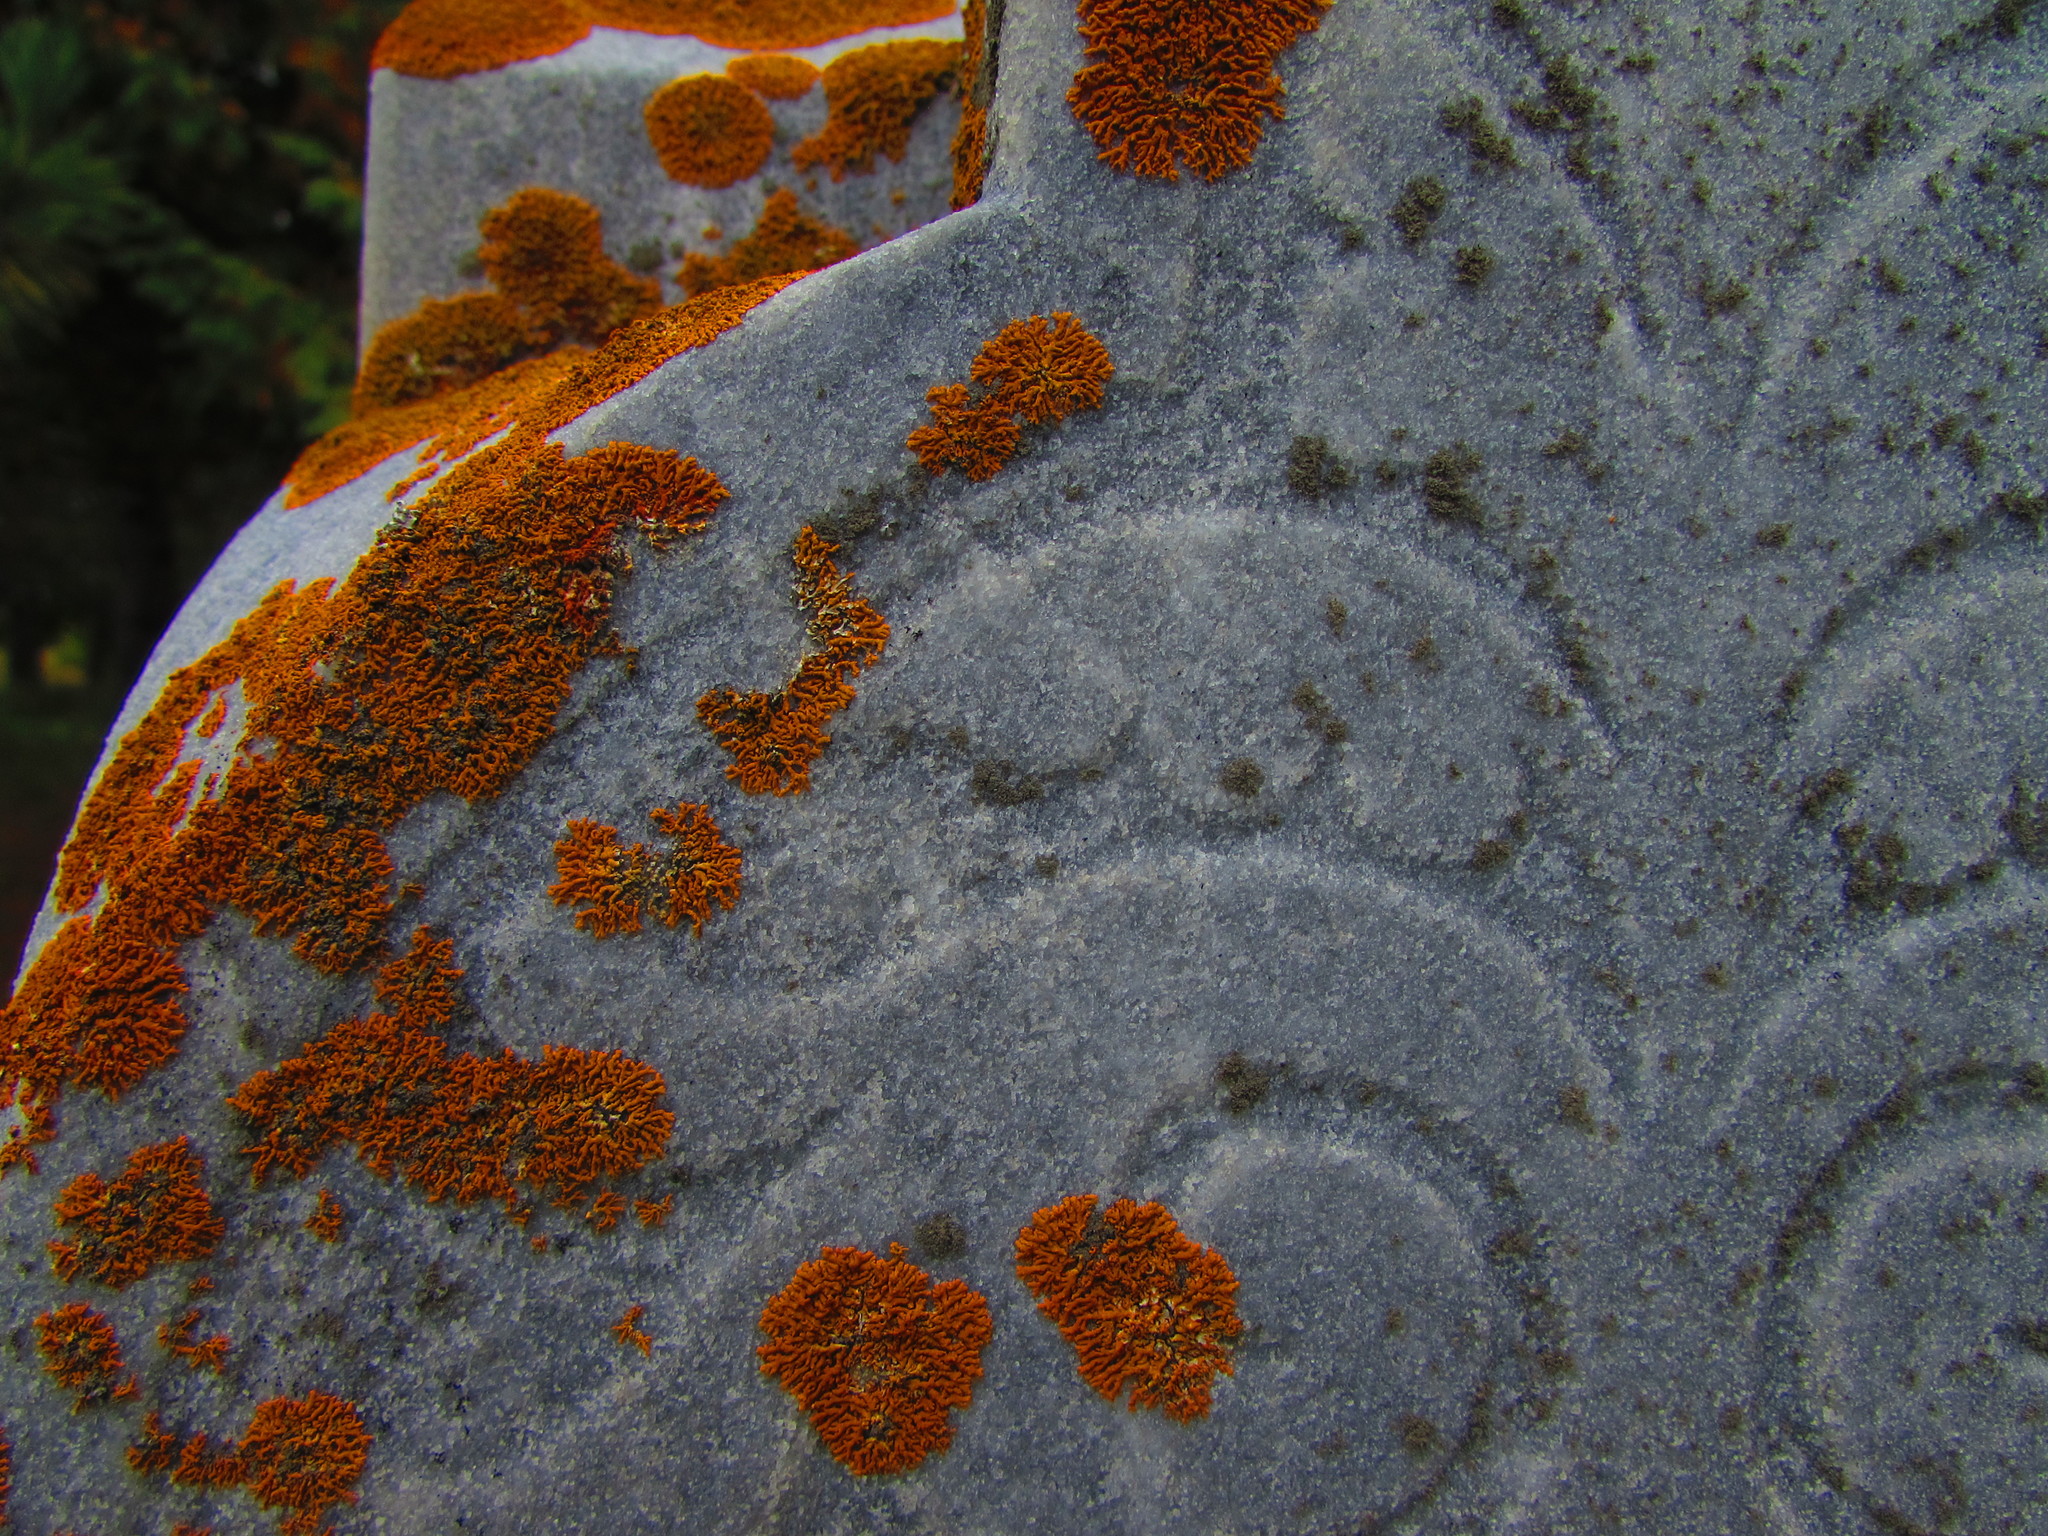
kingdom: Fungi
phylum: Ascomycota
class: Lecanoromycetes
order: Teloschistales
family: Teloschistaceae
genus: Xanthoria
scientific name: Xanthoria elegans
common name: Elegant sunburst lichen
